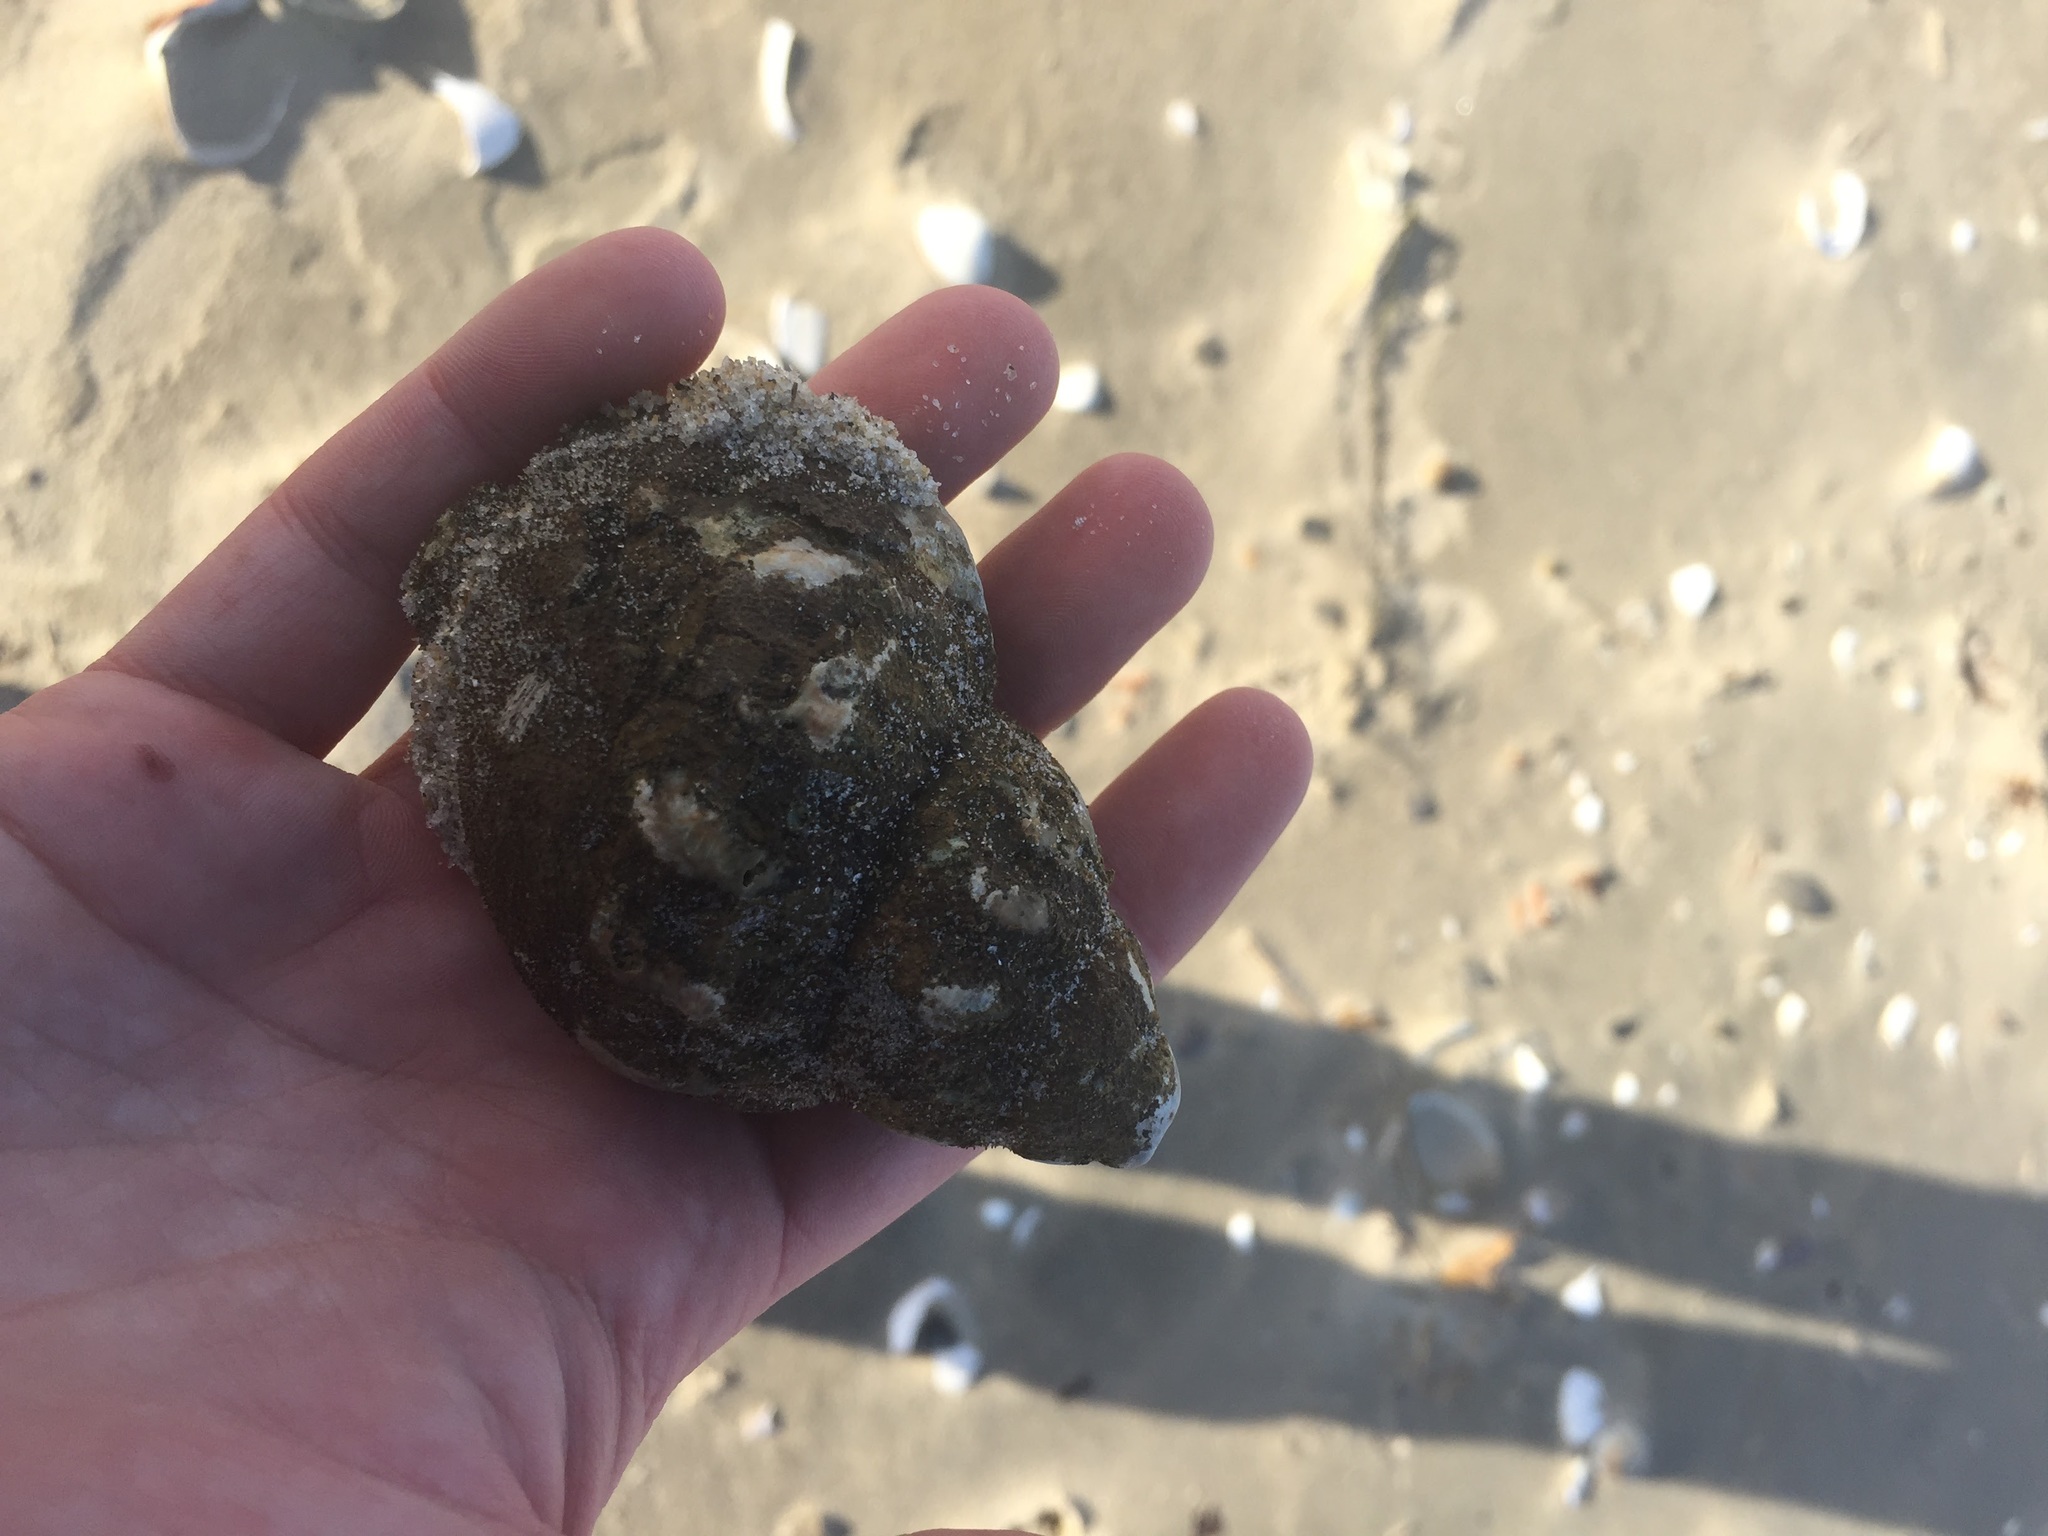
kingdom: Animalia
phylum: Mollusca
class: Gastropoda
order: Neogastropoda
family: Buccinidae
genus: Buccinum
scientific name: Buccinum undatum
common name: Common whelk
